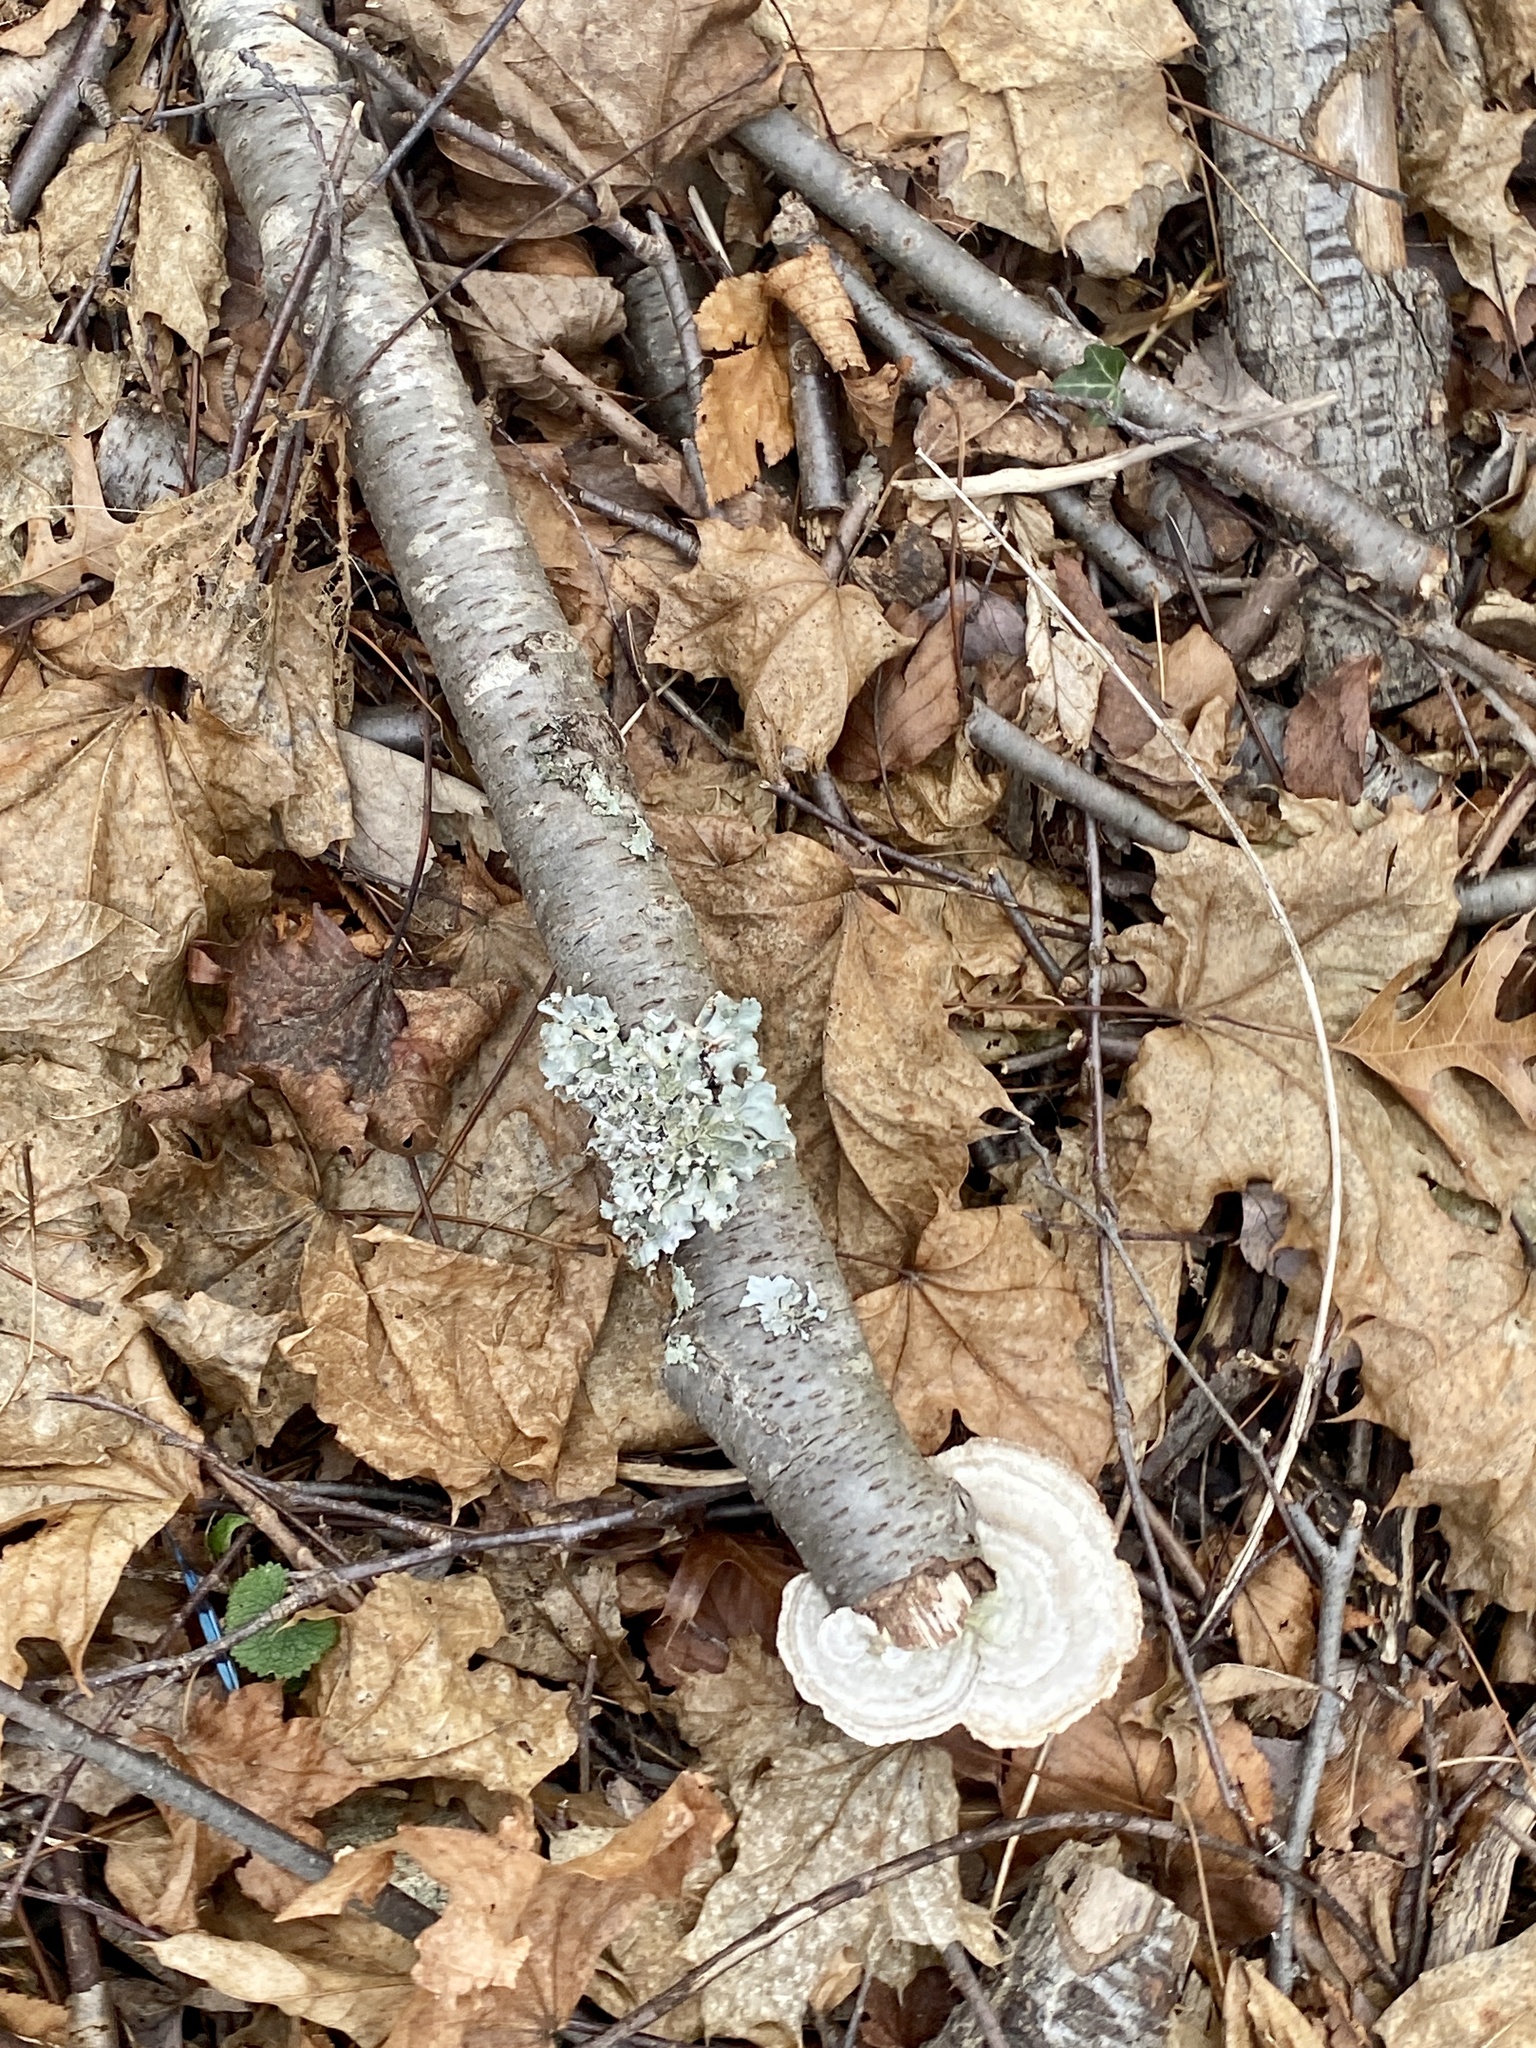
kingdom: Fungi
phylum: Basidiomycota
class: Agaricomycetes
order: Polyporales
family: Polyporaceae
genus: Trametes
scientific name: Trametes hirsuta
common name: Hairy bracket
